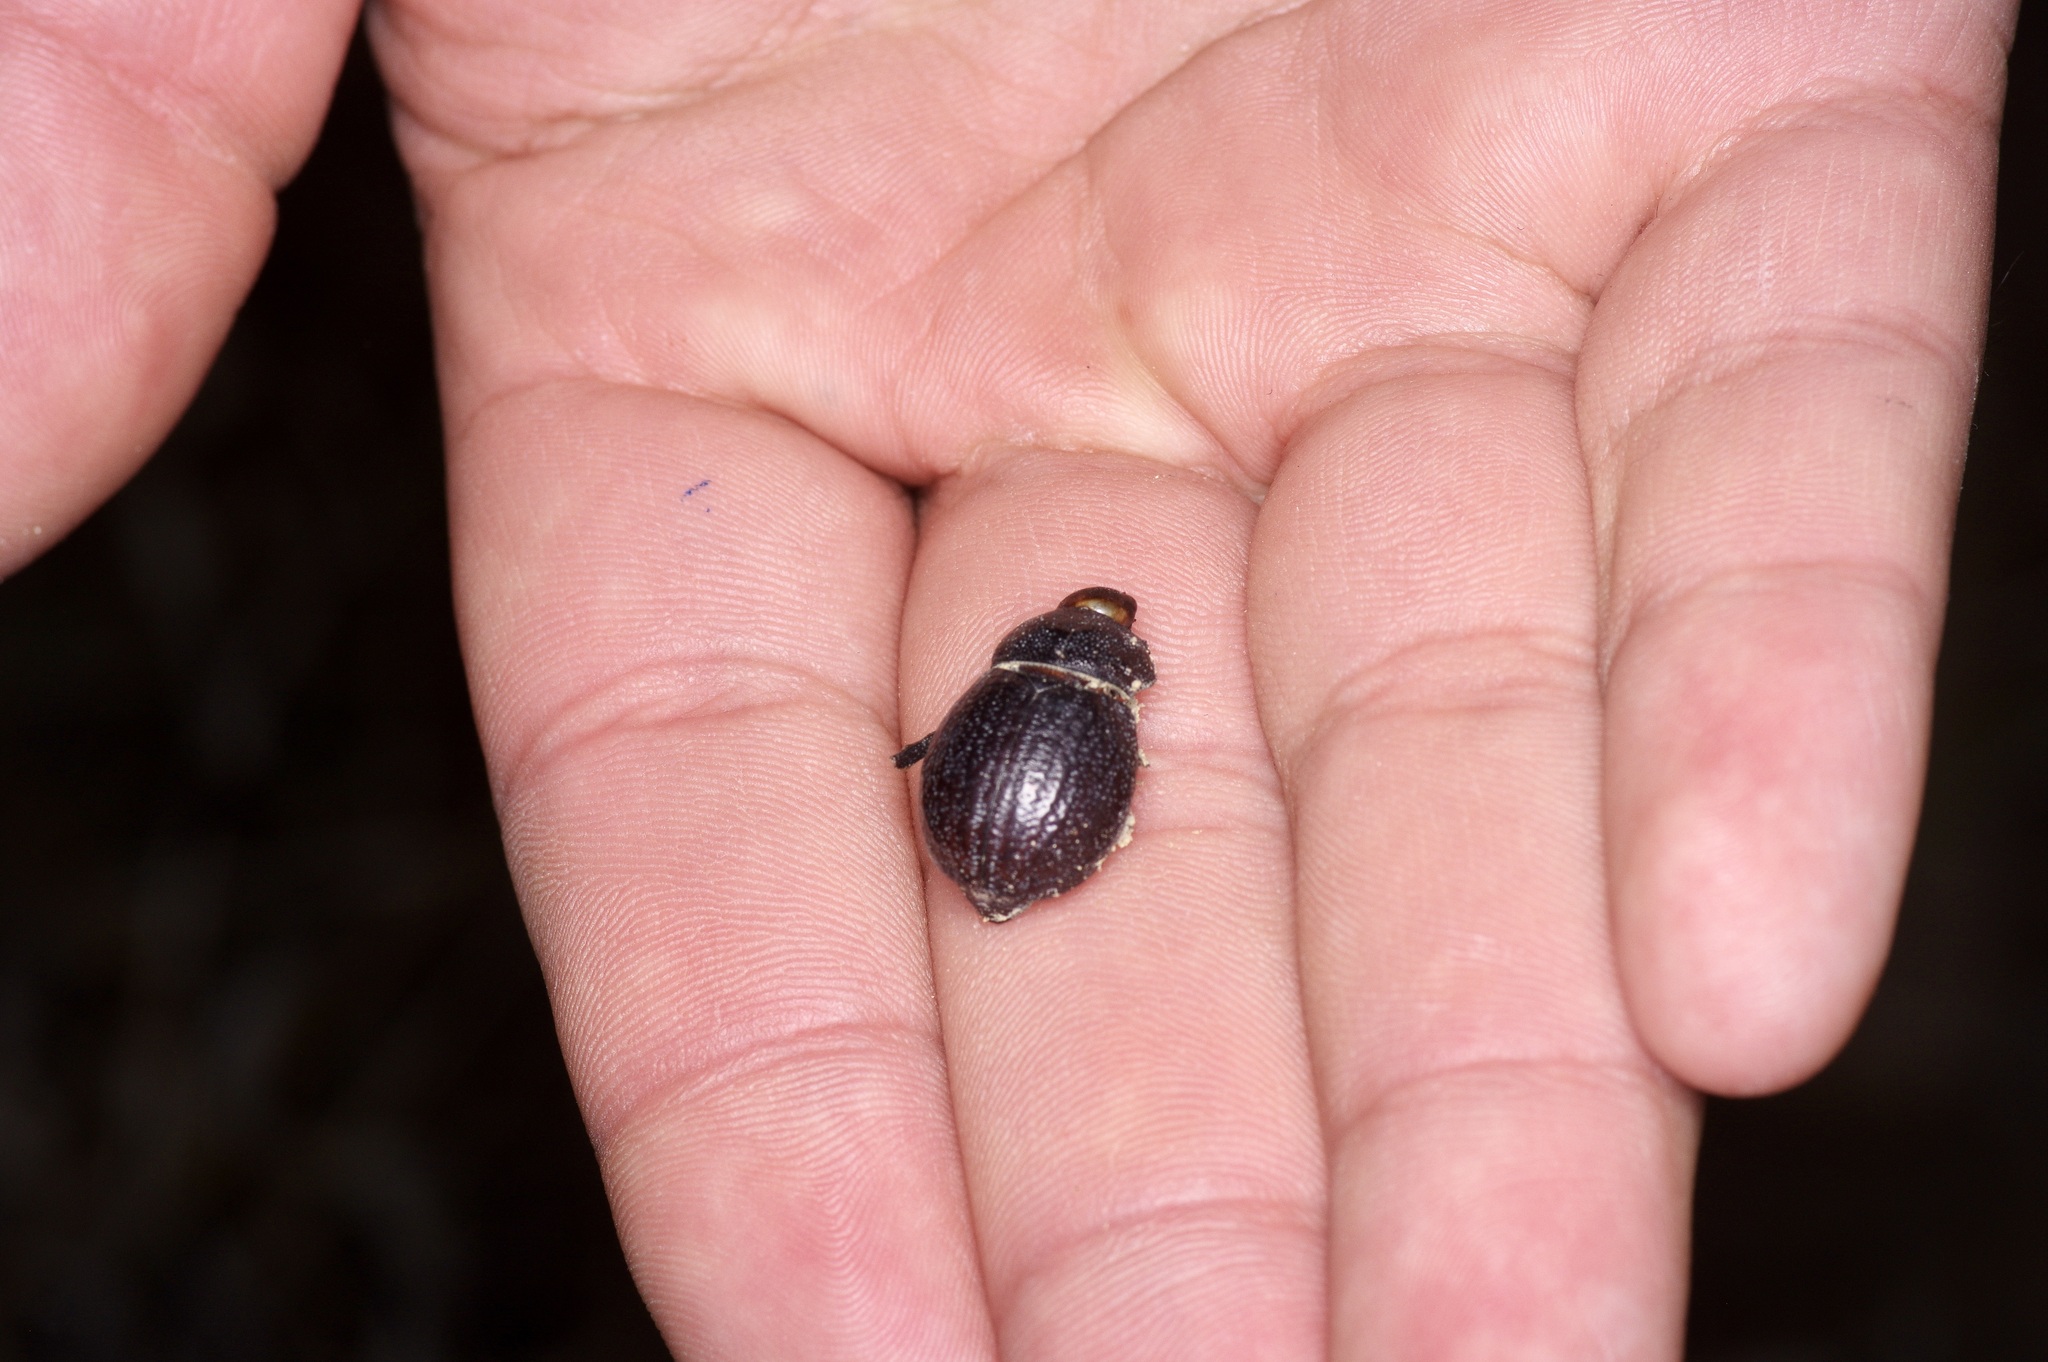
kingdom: Animalia
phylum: Arthropoda
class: Insecta
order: Coleoptera
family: Scarabaeidae
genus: Phyllophaga
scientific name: Phyllophaga cribrosa
